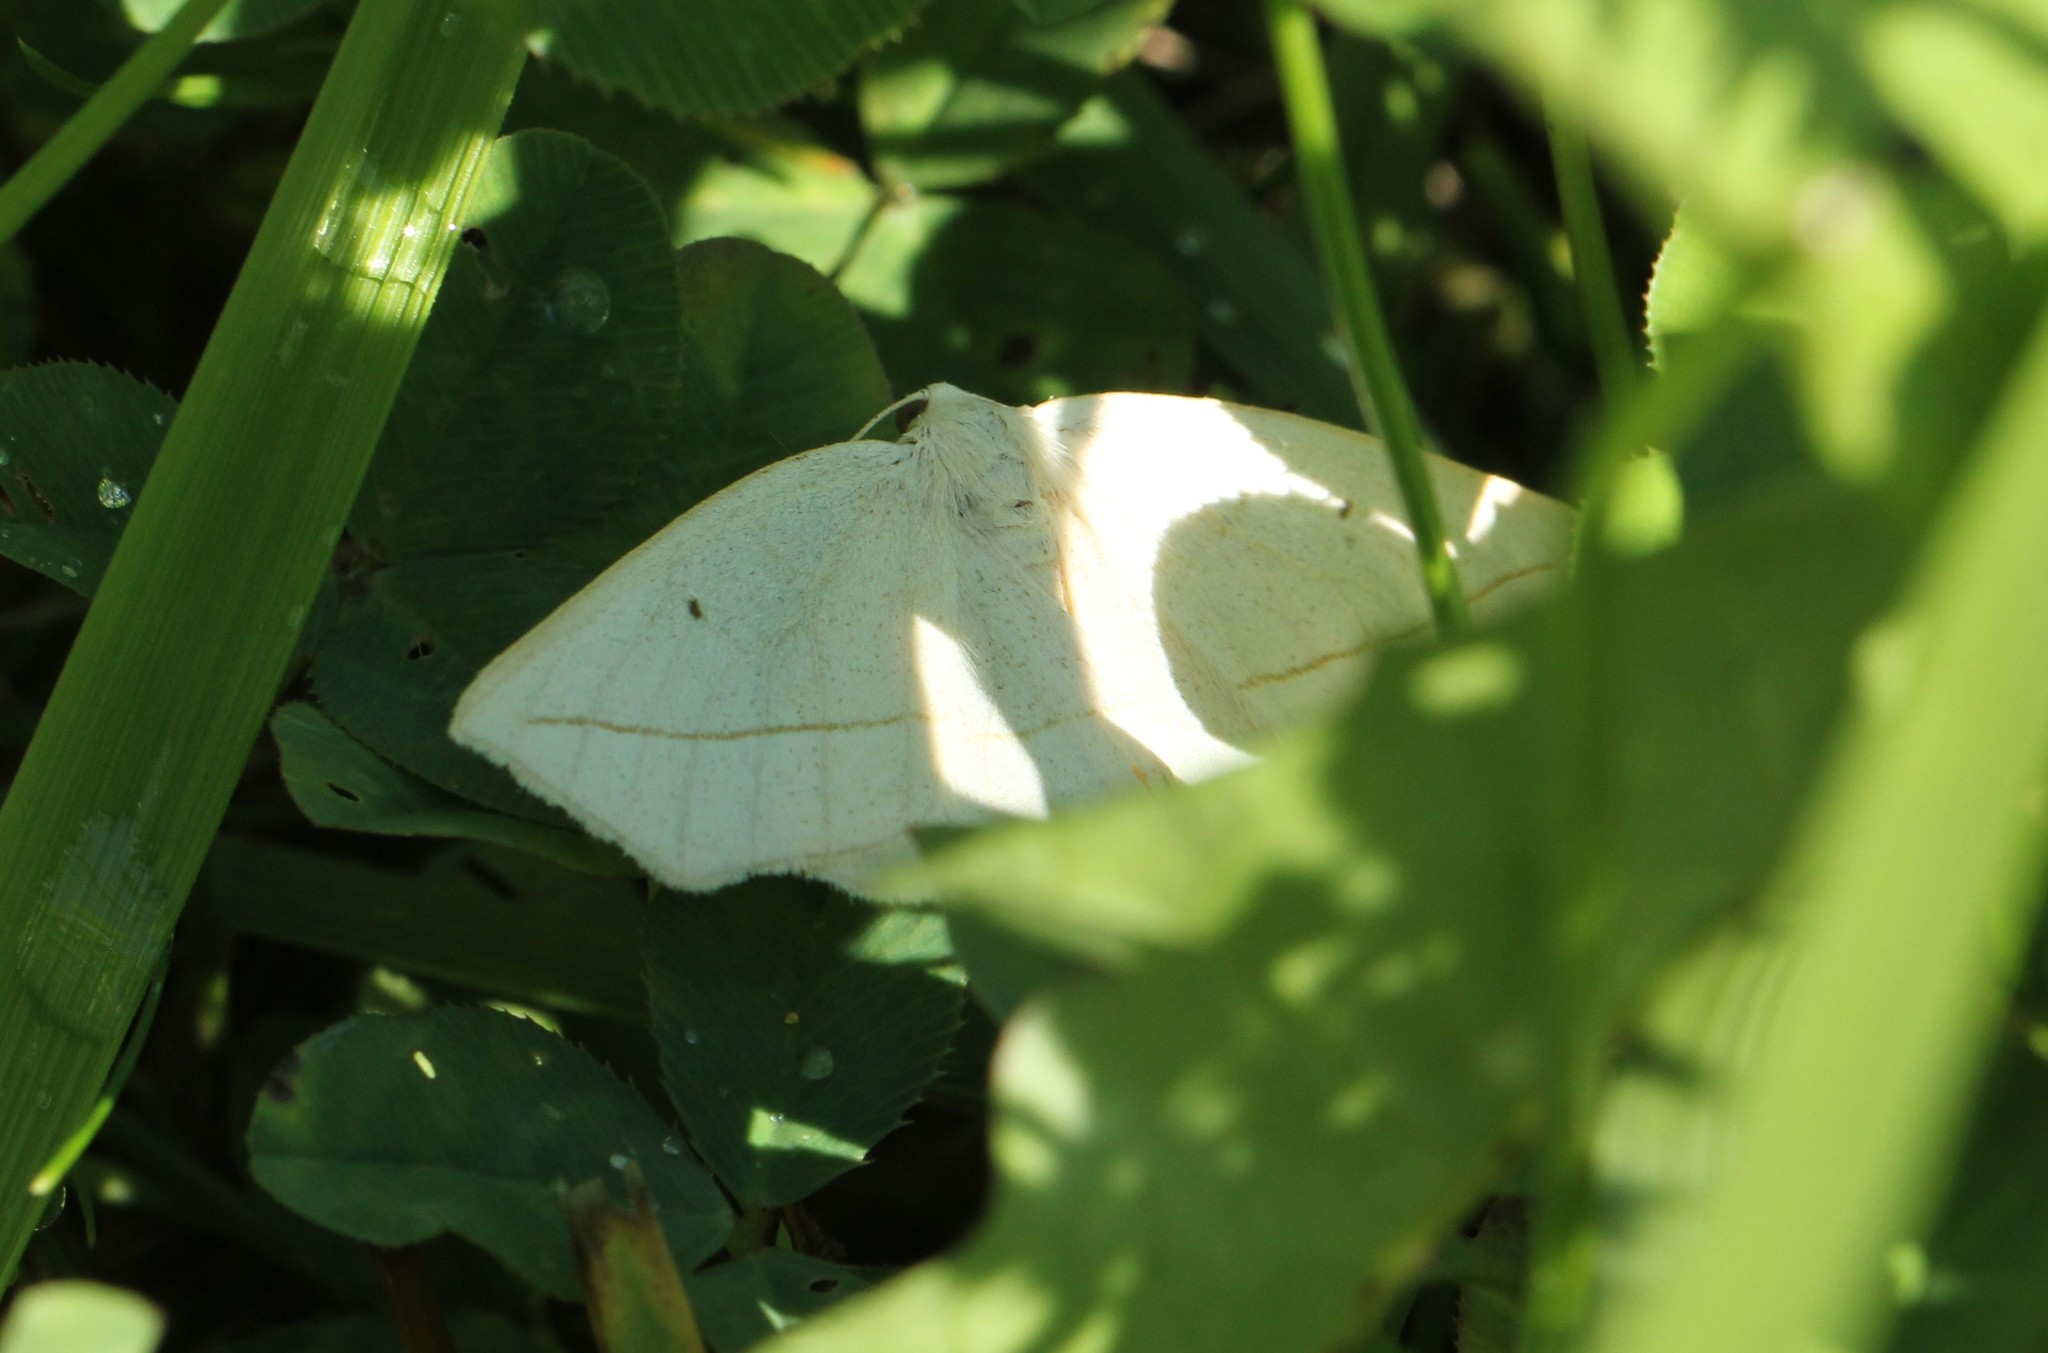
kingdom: Animalia
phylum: Arthropoda
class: Insecta
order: Lepidoptera
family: Geometridae
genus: Eusarca
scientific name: Eusarca confusaria
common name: Confused eusarca
